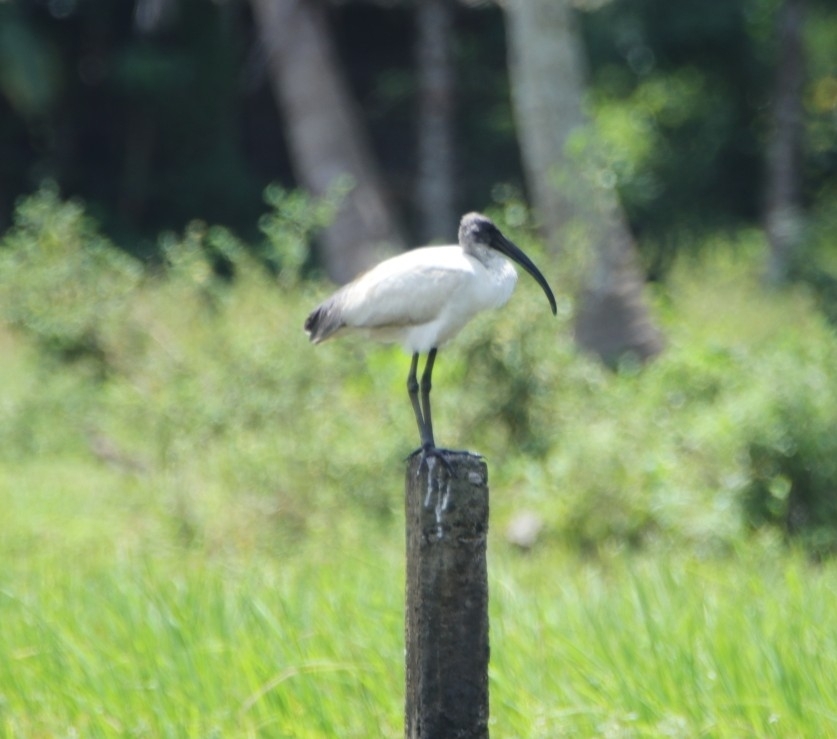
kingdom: Animalia
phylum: Chordata
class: Aves
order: Pelecaniformes
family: Threskiornithidae
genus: Threskiornis
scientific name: Threskiornis melanocephalus
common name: Black-headed ibis
